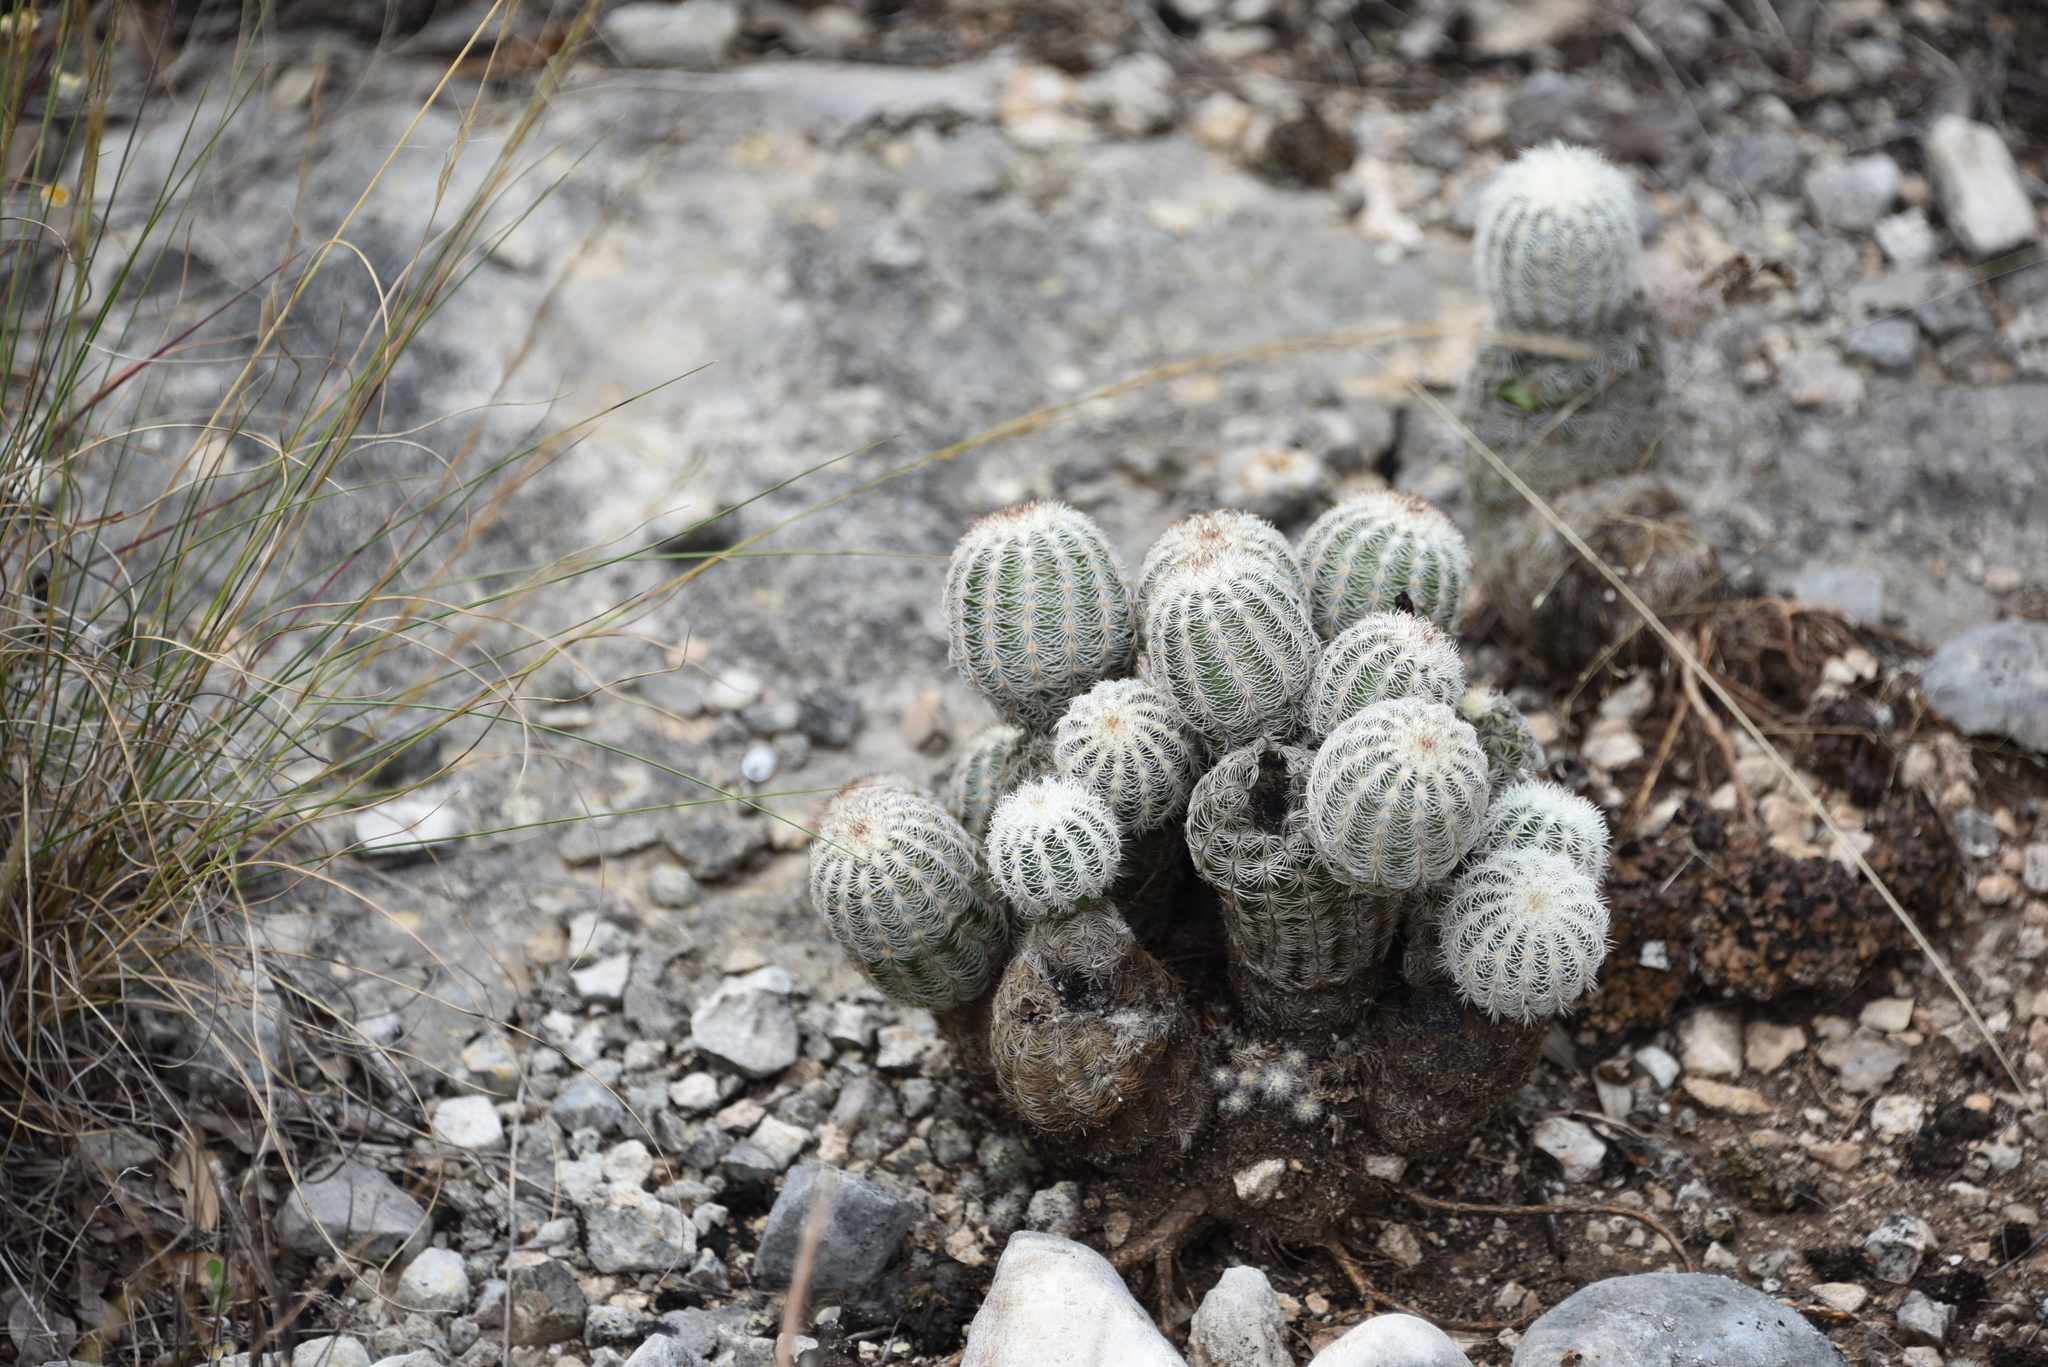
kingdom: Plantae
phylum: Tracheophyta
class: Magnoliopsida
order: Caryophyllales
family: Cactaceae
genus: Echinocereus
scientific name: Echinocereus reichenbachii
